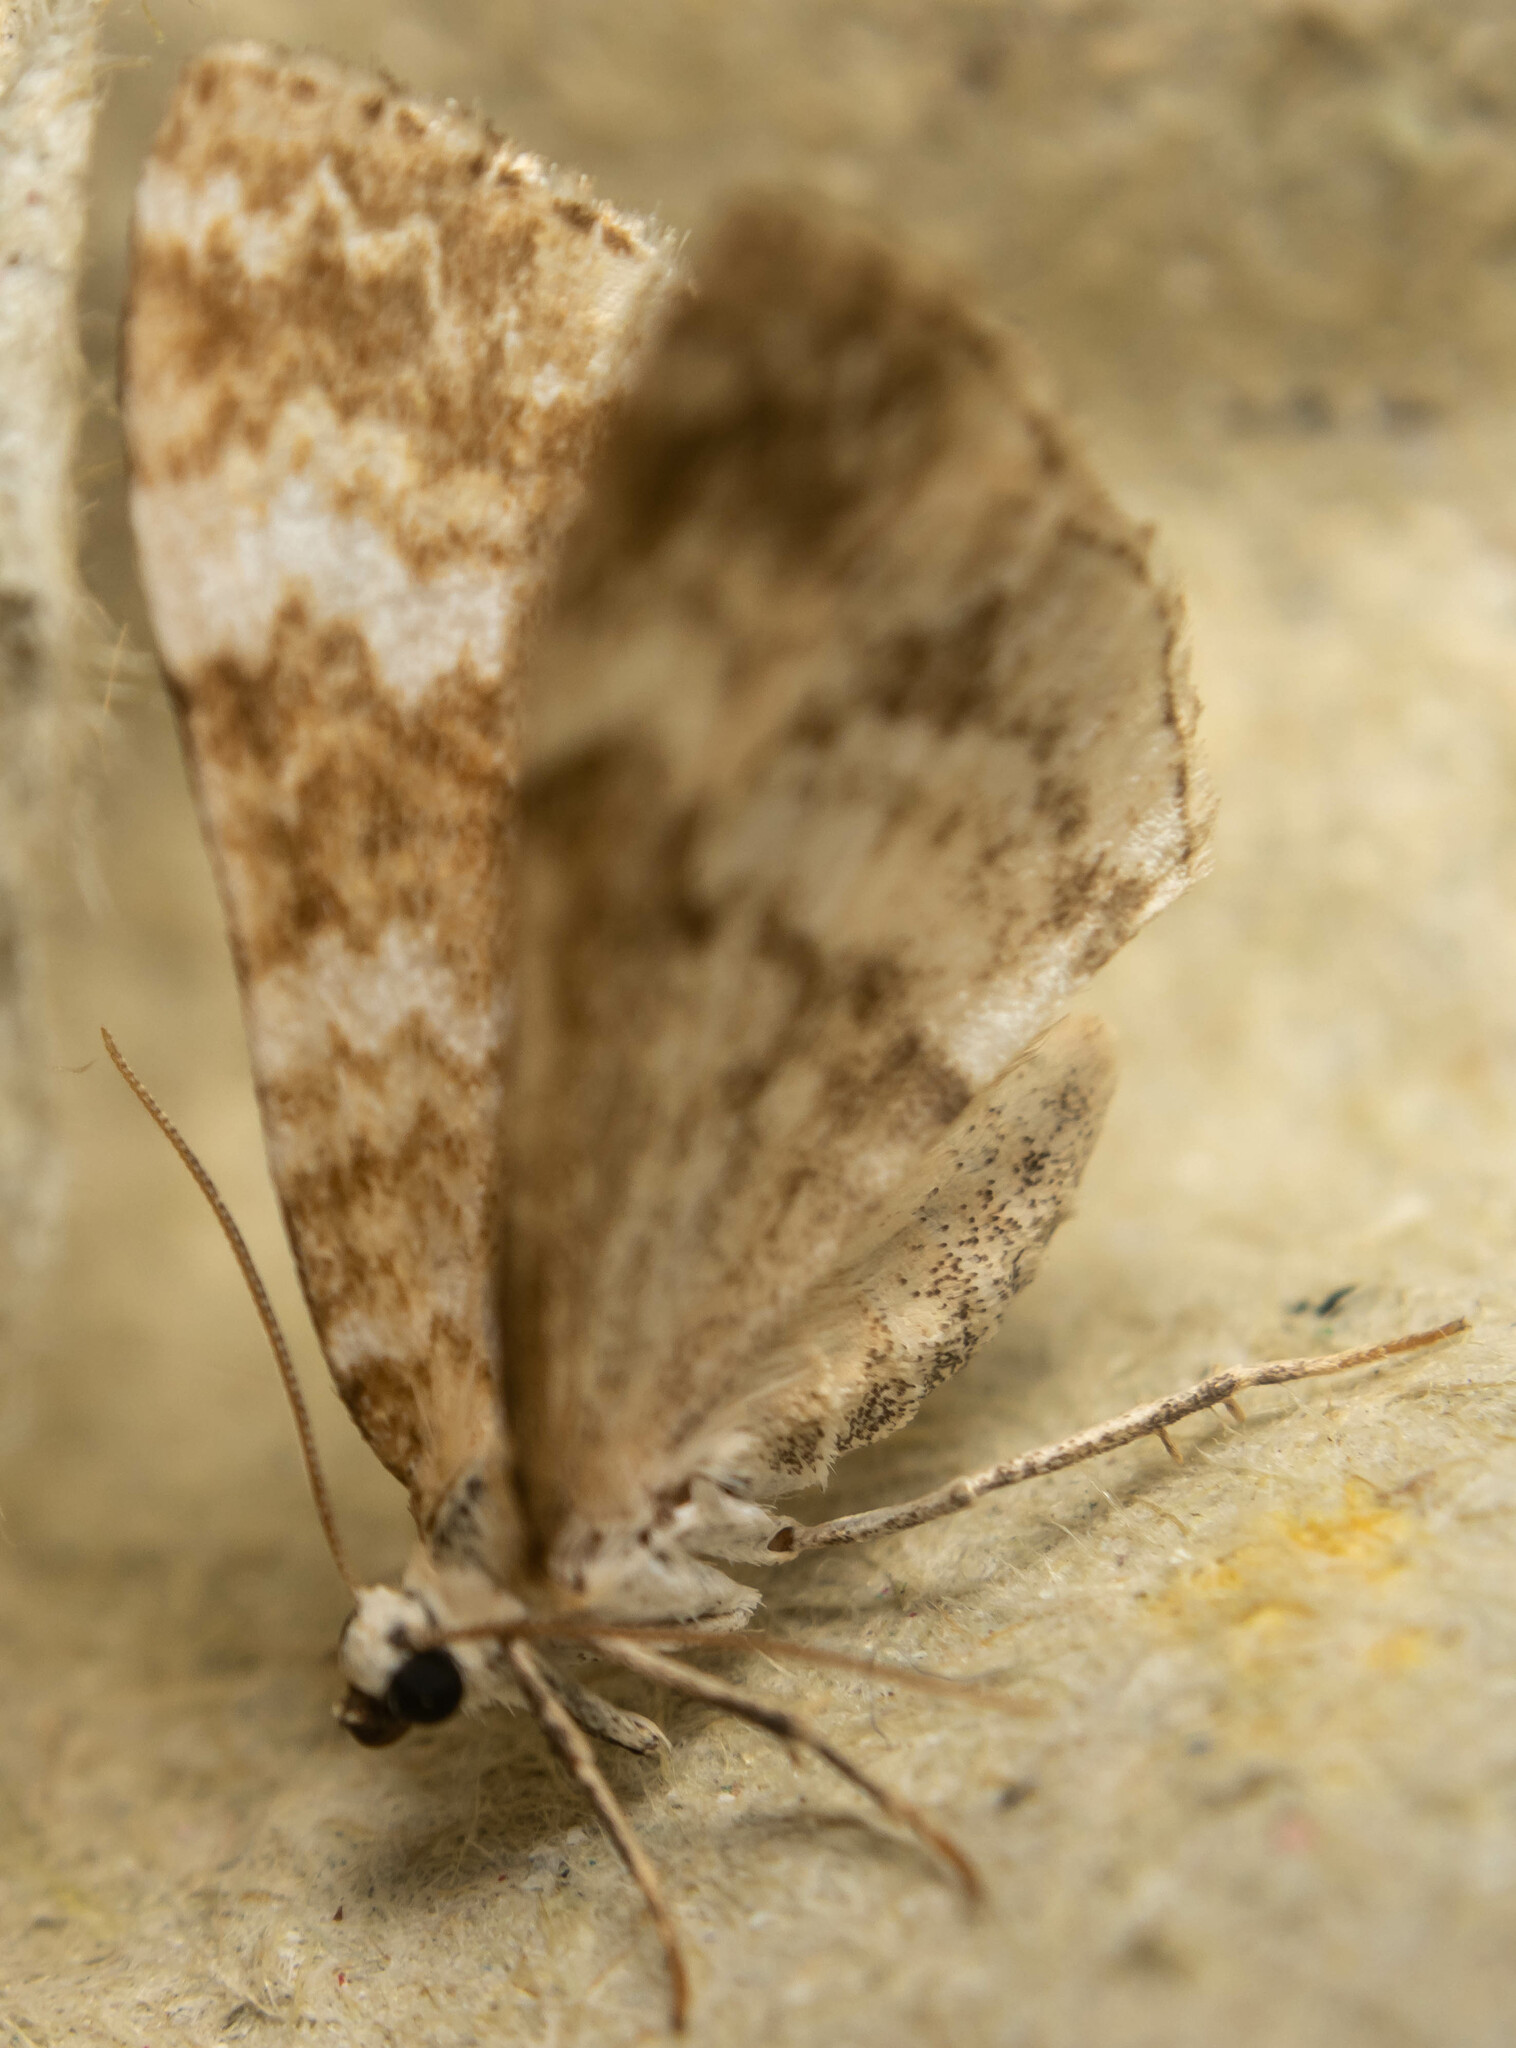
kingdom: Animalia
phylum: Arthropoda
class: Insecta
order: Lepidoptera
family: Geometridae
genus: Perizoma
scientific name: Perizoma flavofasciata
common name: Sandy carpet
